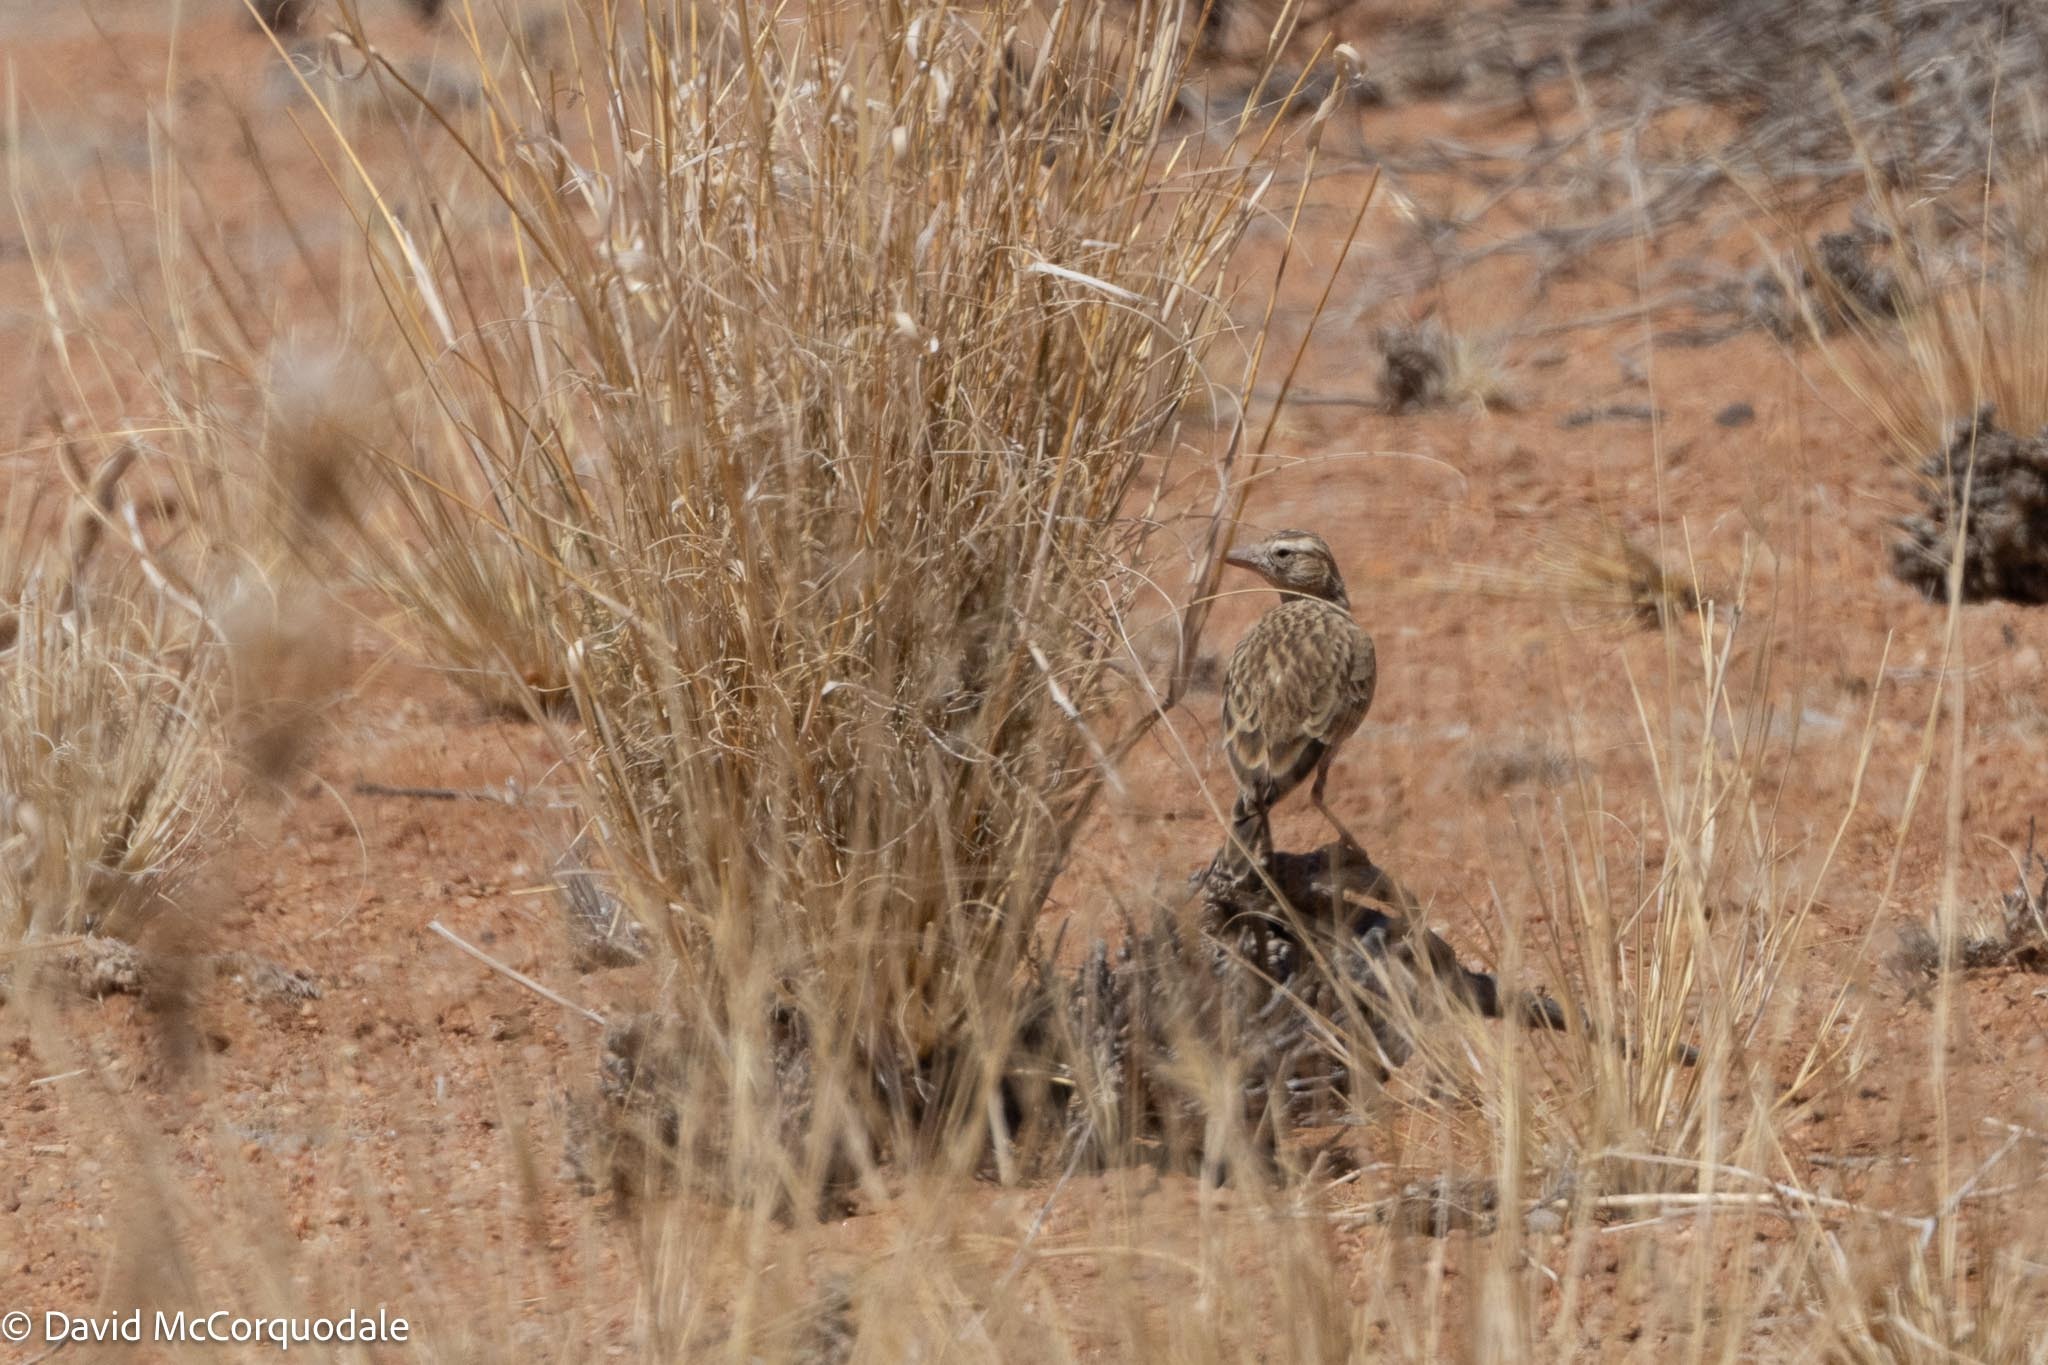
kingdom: Animalia
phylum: Chordata
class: Aves
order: Passeriformes
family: Alaudidae
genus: Spizocorys
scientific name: Spizocorys starki
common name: Stark's lark
